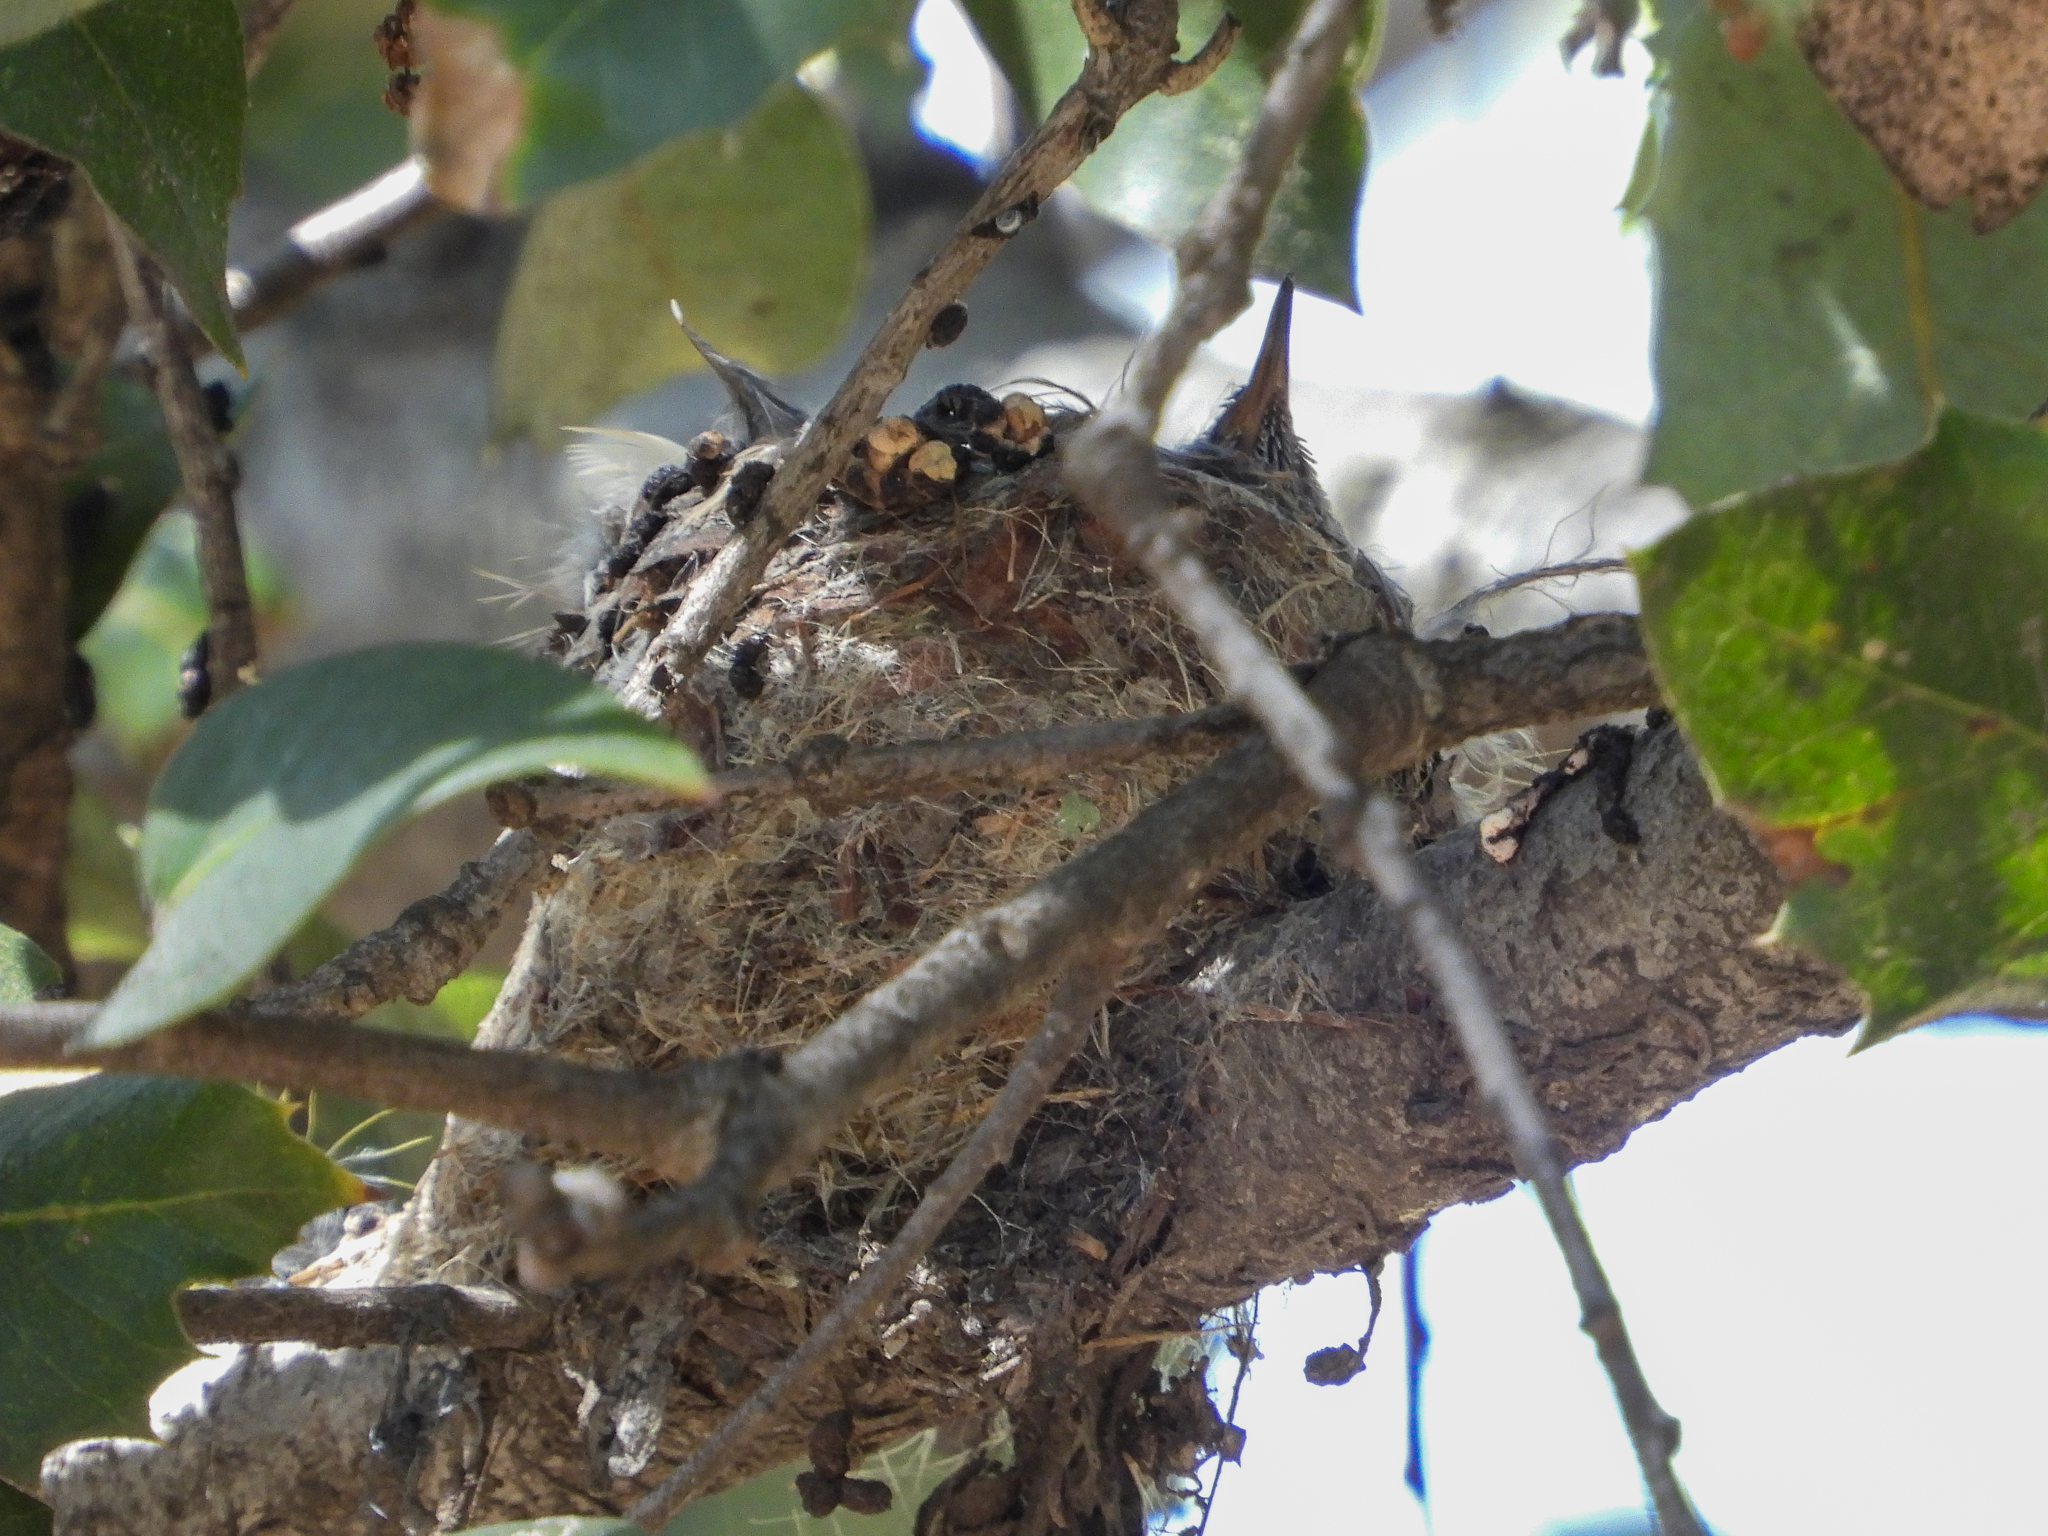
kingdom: Animalia
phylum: Chordata
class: Aves
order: Apodiformes
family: Trochilidae
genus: Calypte
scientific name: Calypte anna
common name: Anna's hummingbird
